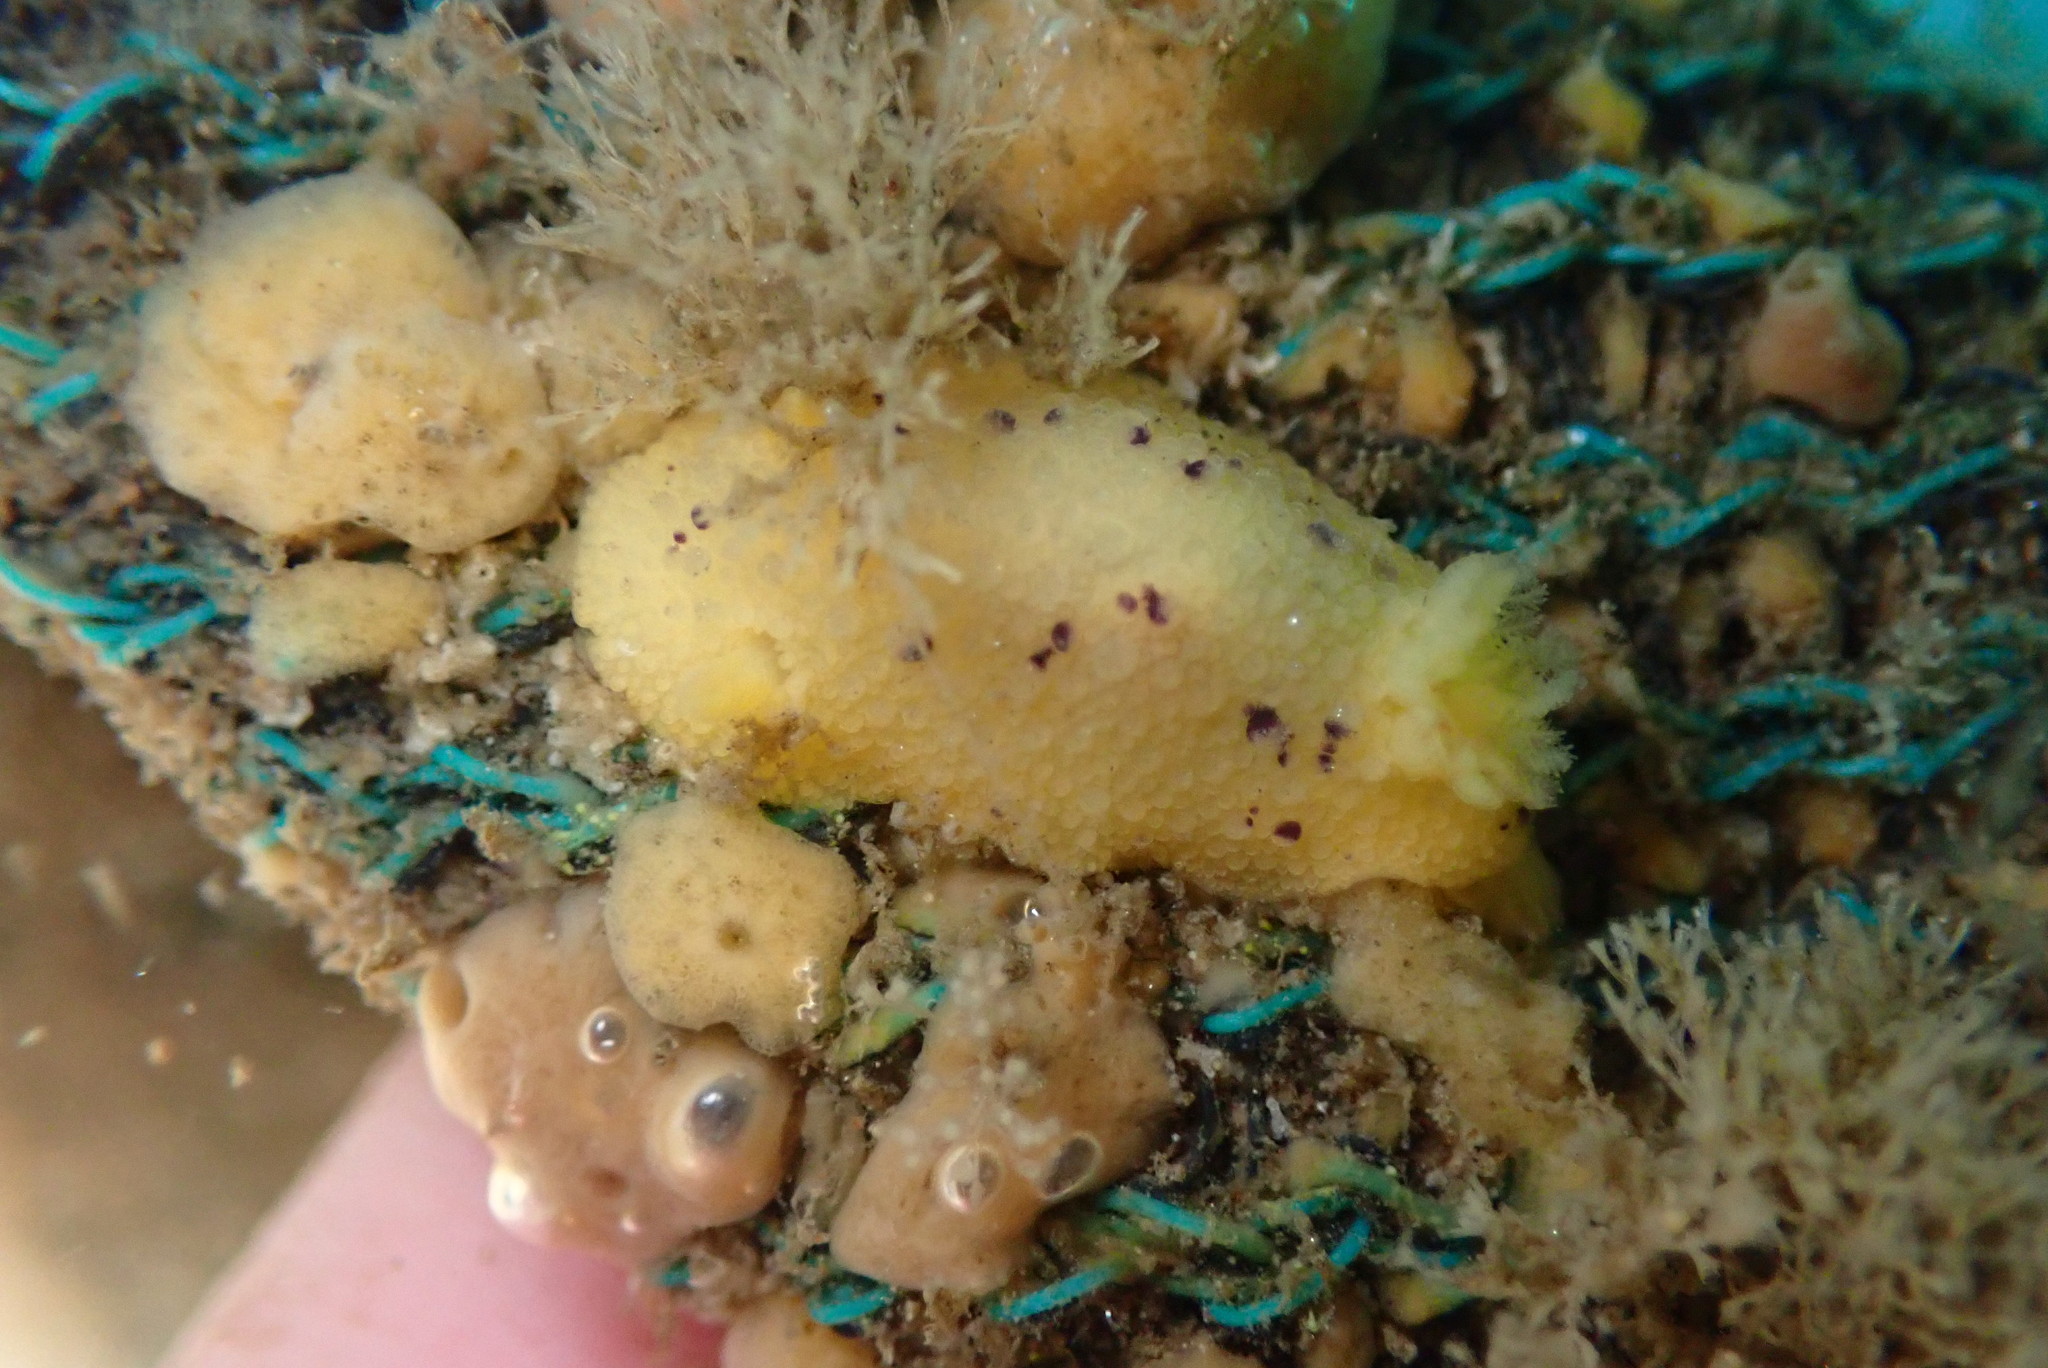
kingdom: Animalia
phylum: Mollusca
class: Gastropoda
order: Nudibranchia
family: Dorididae
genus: Doris
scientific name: Doris montereyensis
